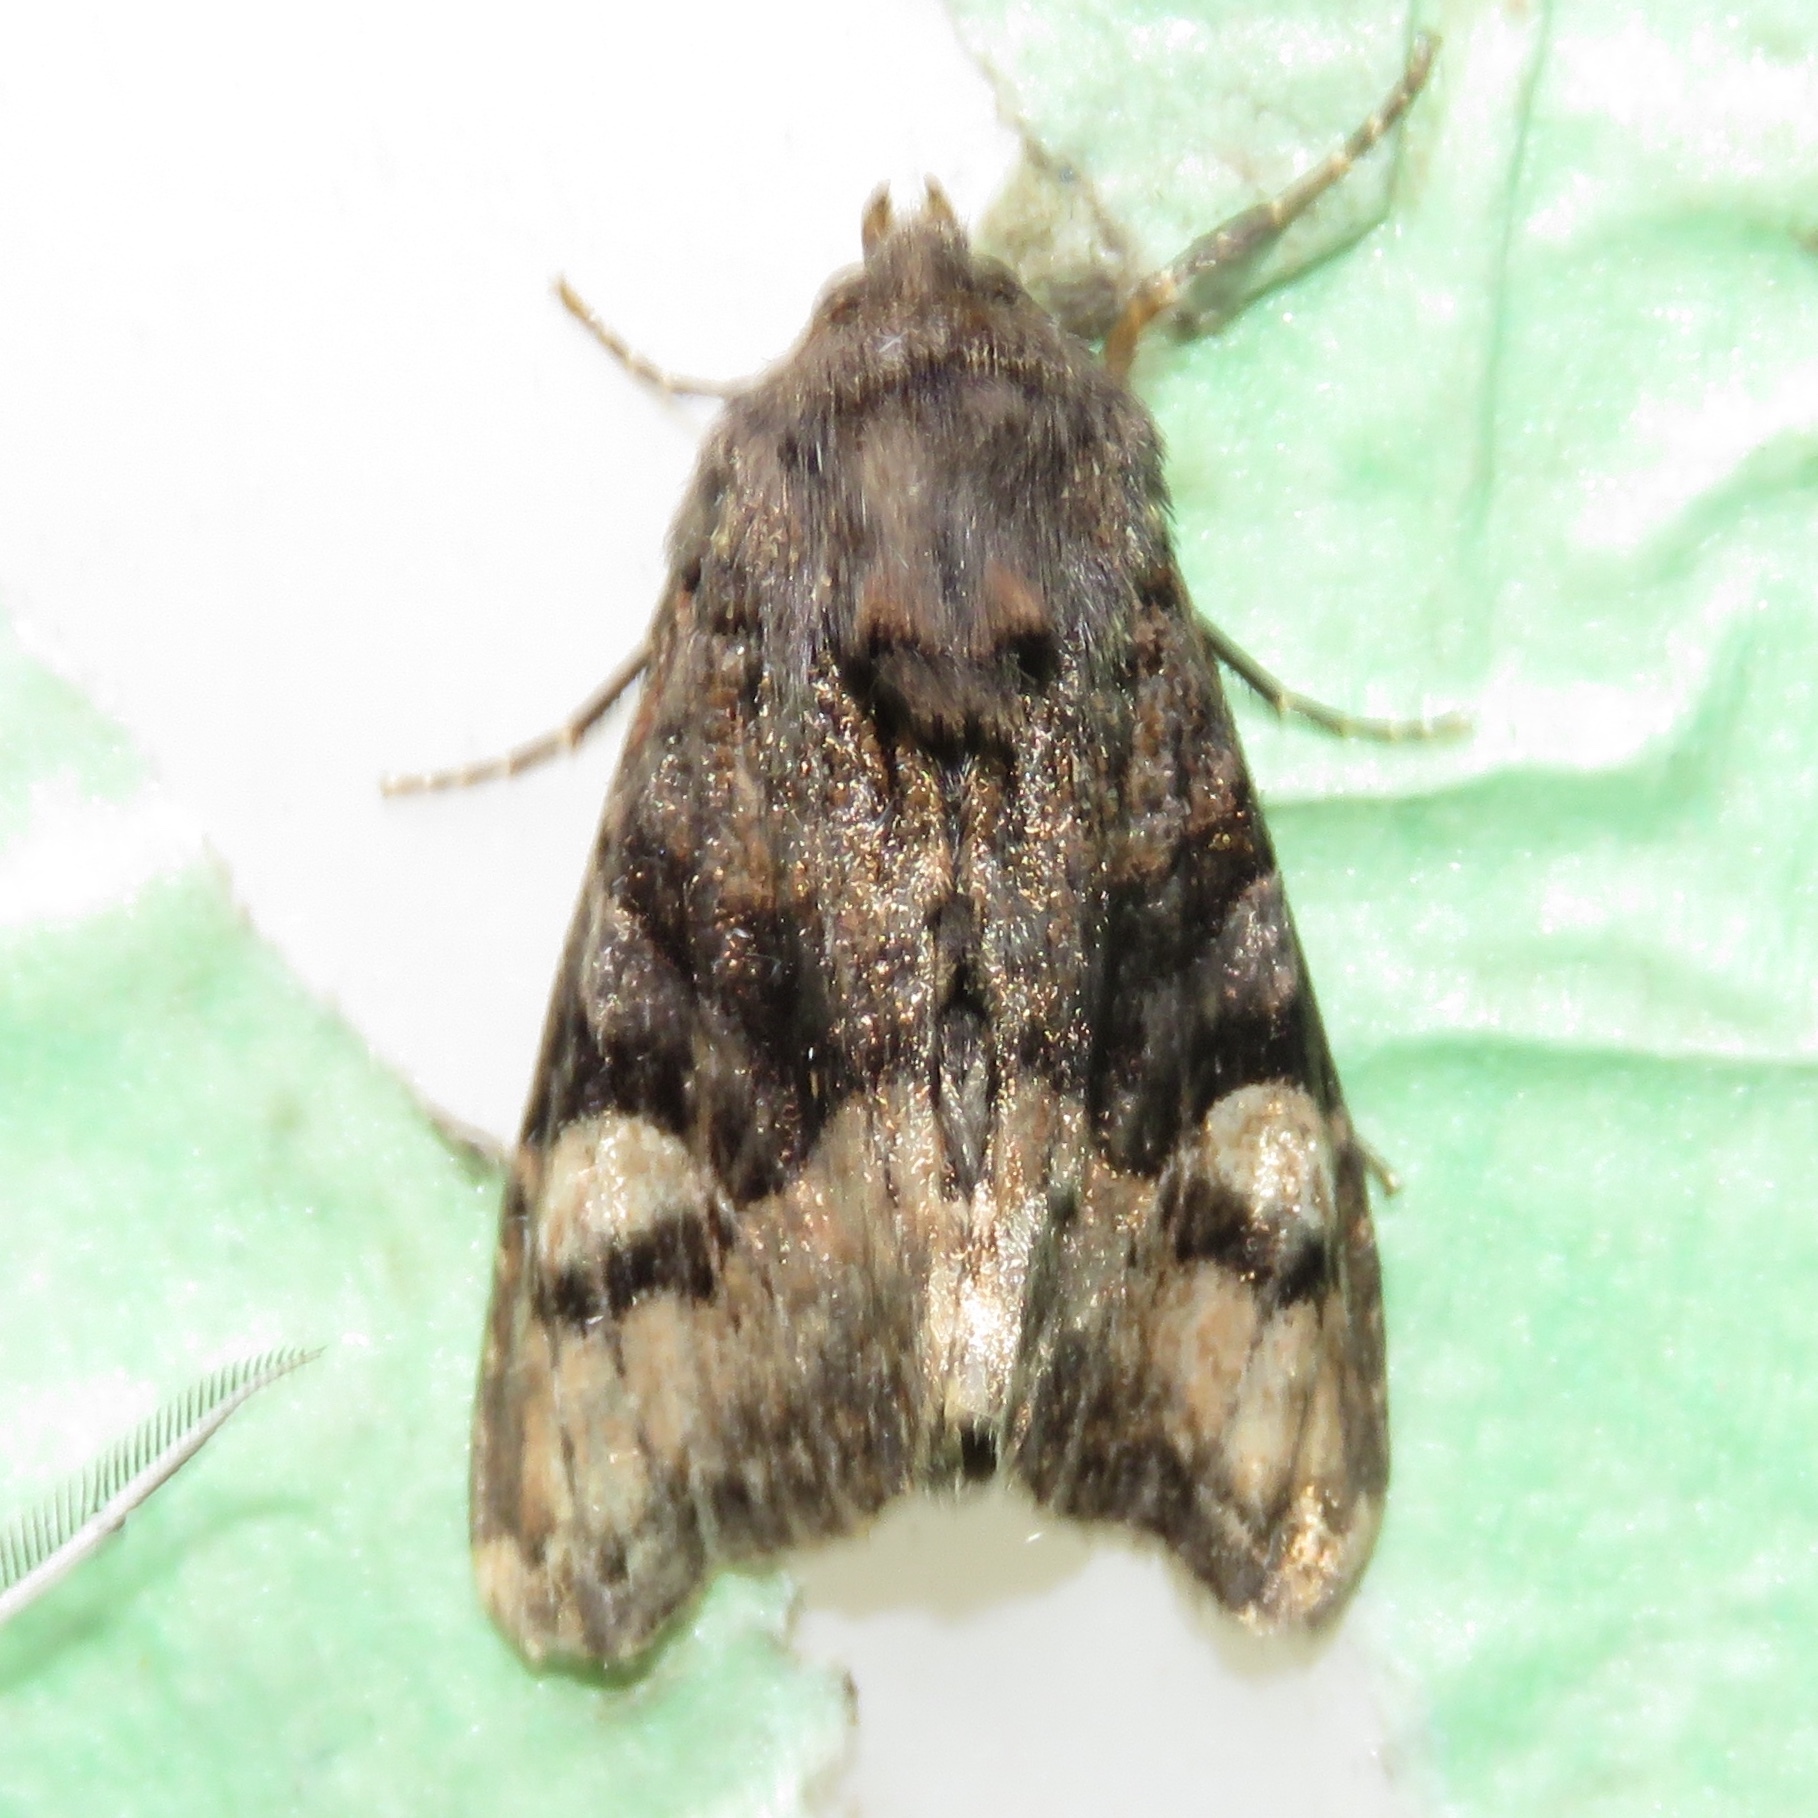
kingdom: Animalia
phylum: Arthropoda
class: Insecta
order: Lepidoptera
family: Noctuidae
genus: Euplexia
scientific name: Euplexia benesimilis
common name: American angle shades
